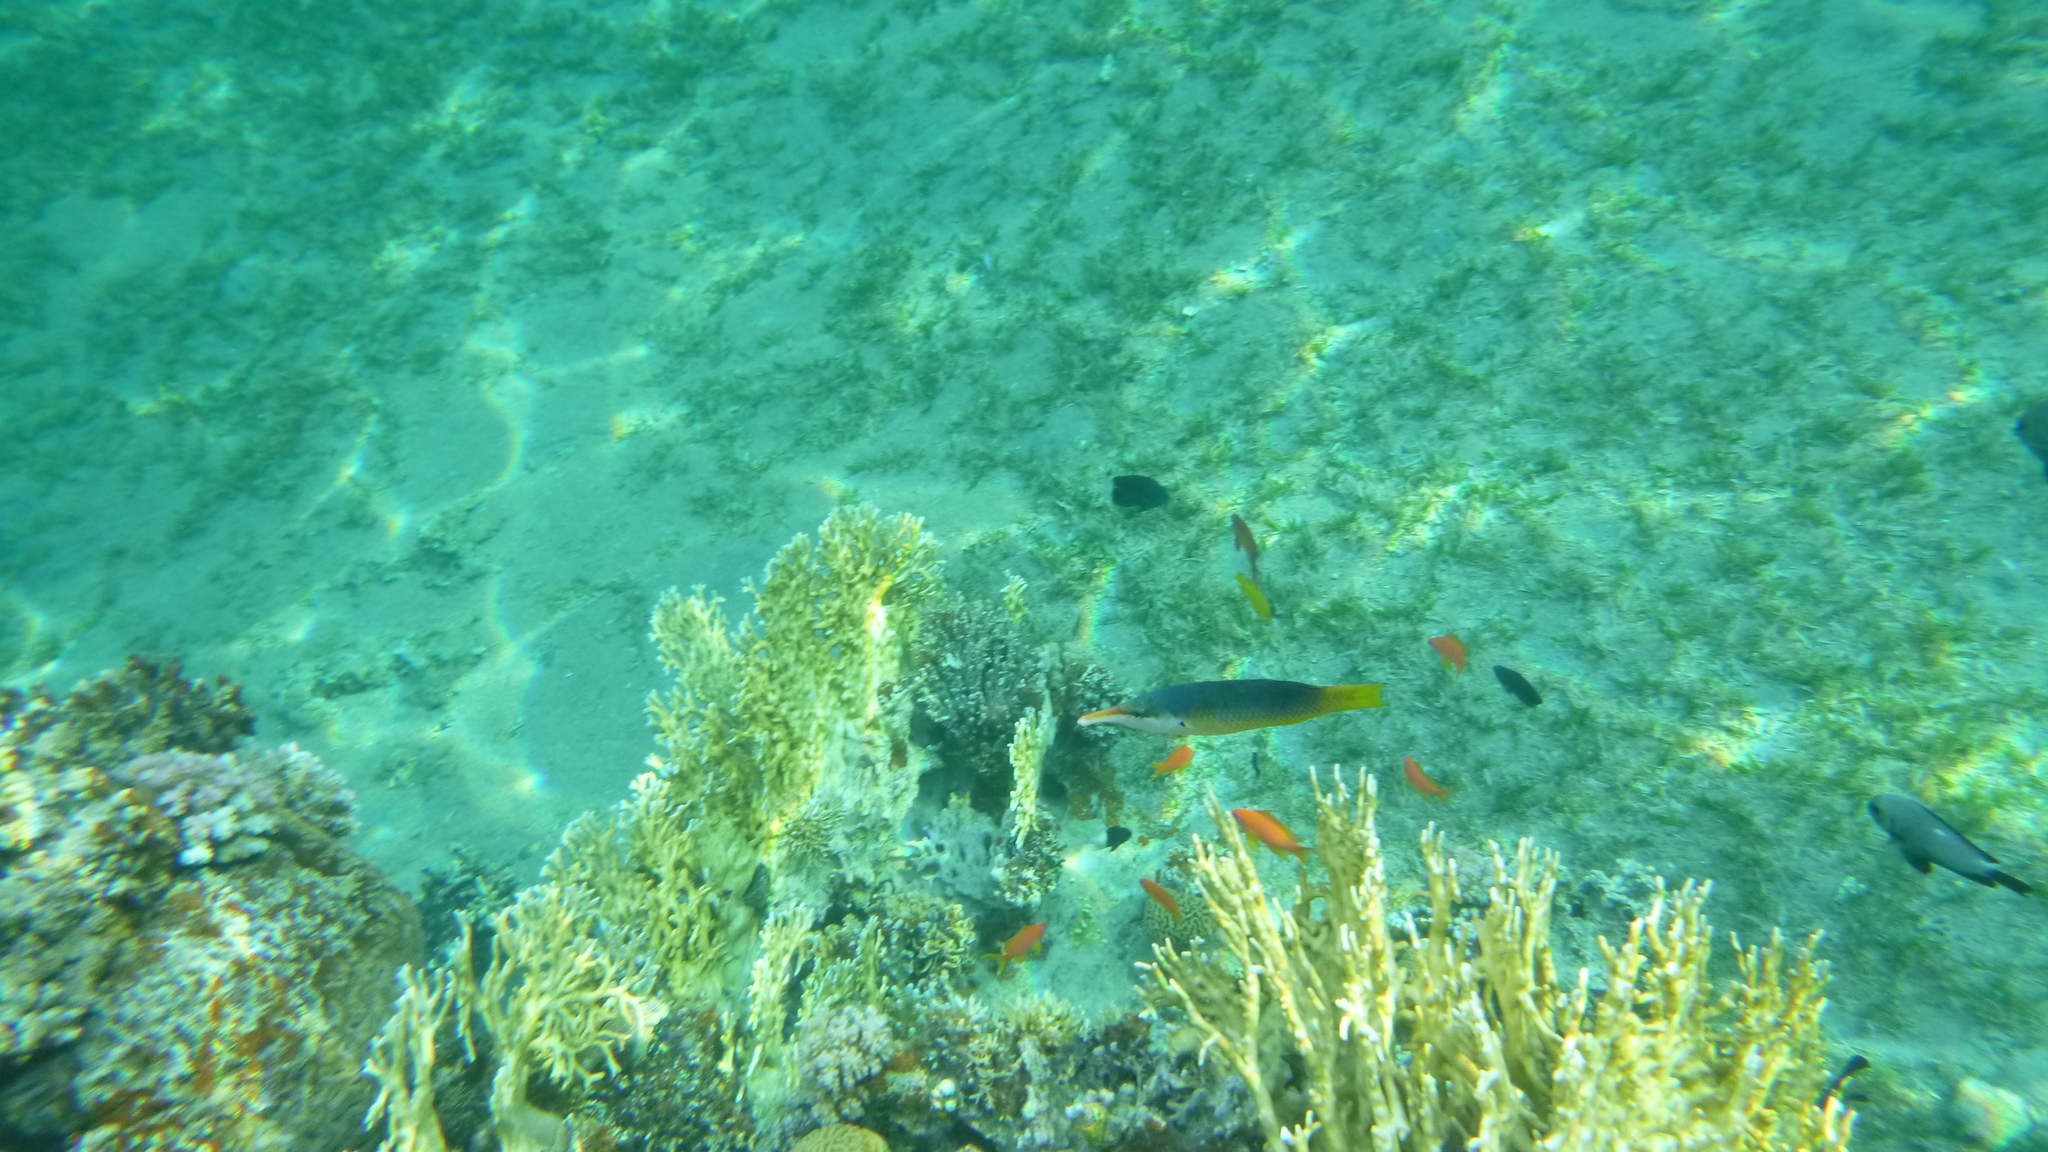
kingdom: Animalia
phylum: Chordata
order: Perciformes
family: Labridae
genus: Gomphosus
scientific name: Gomphosus klunzingeri
